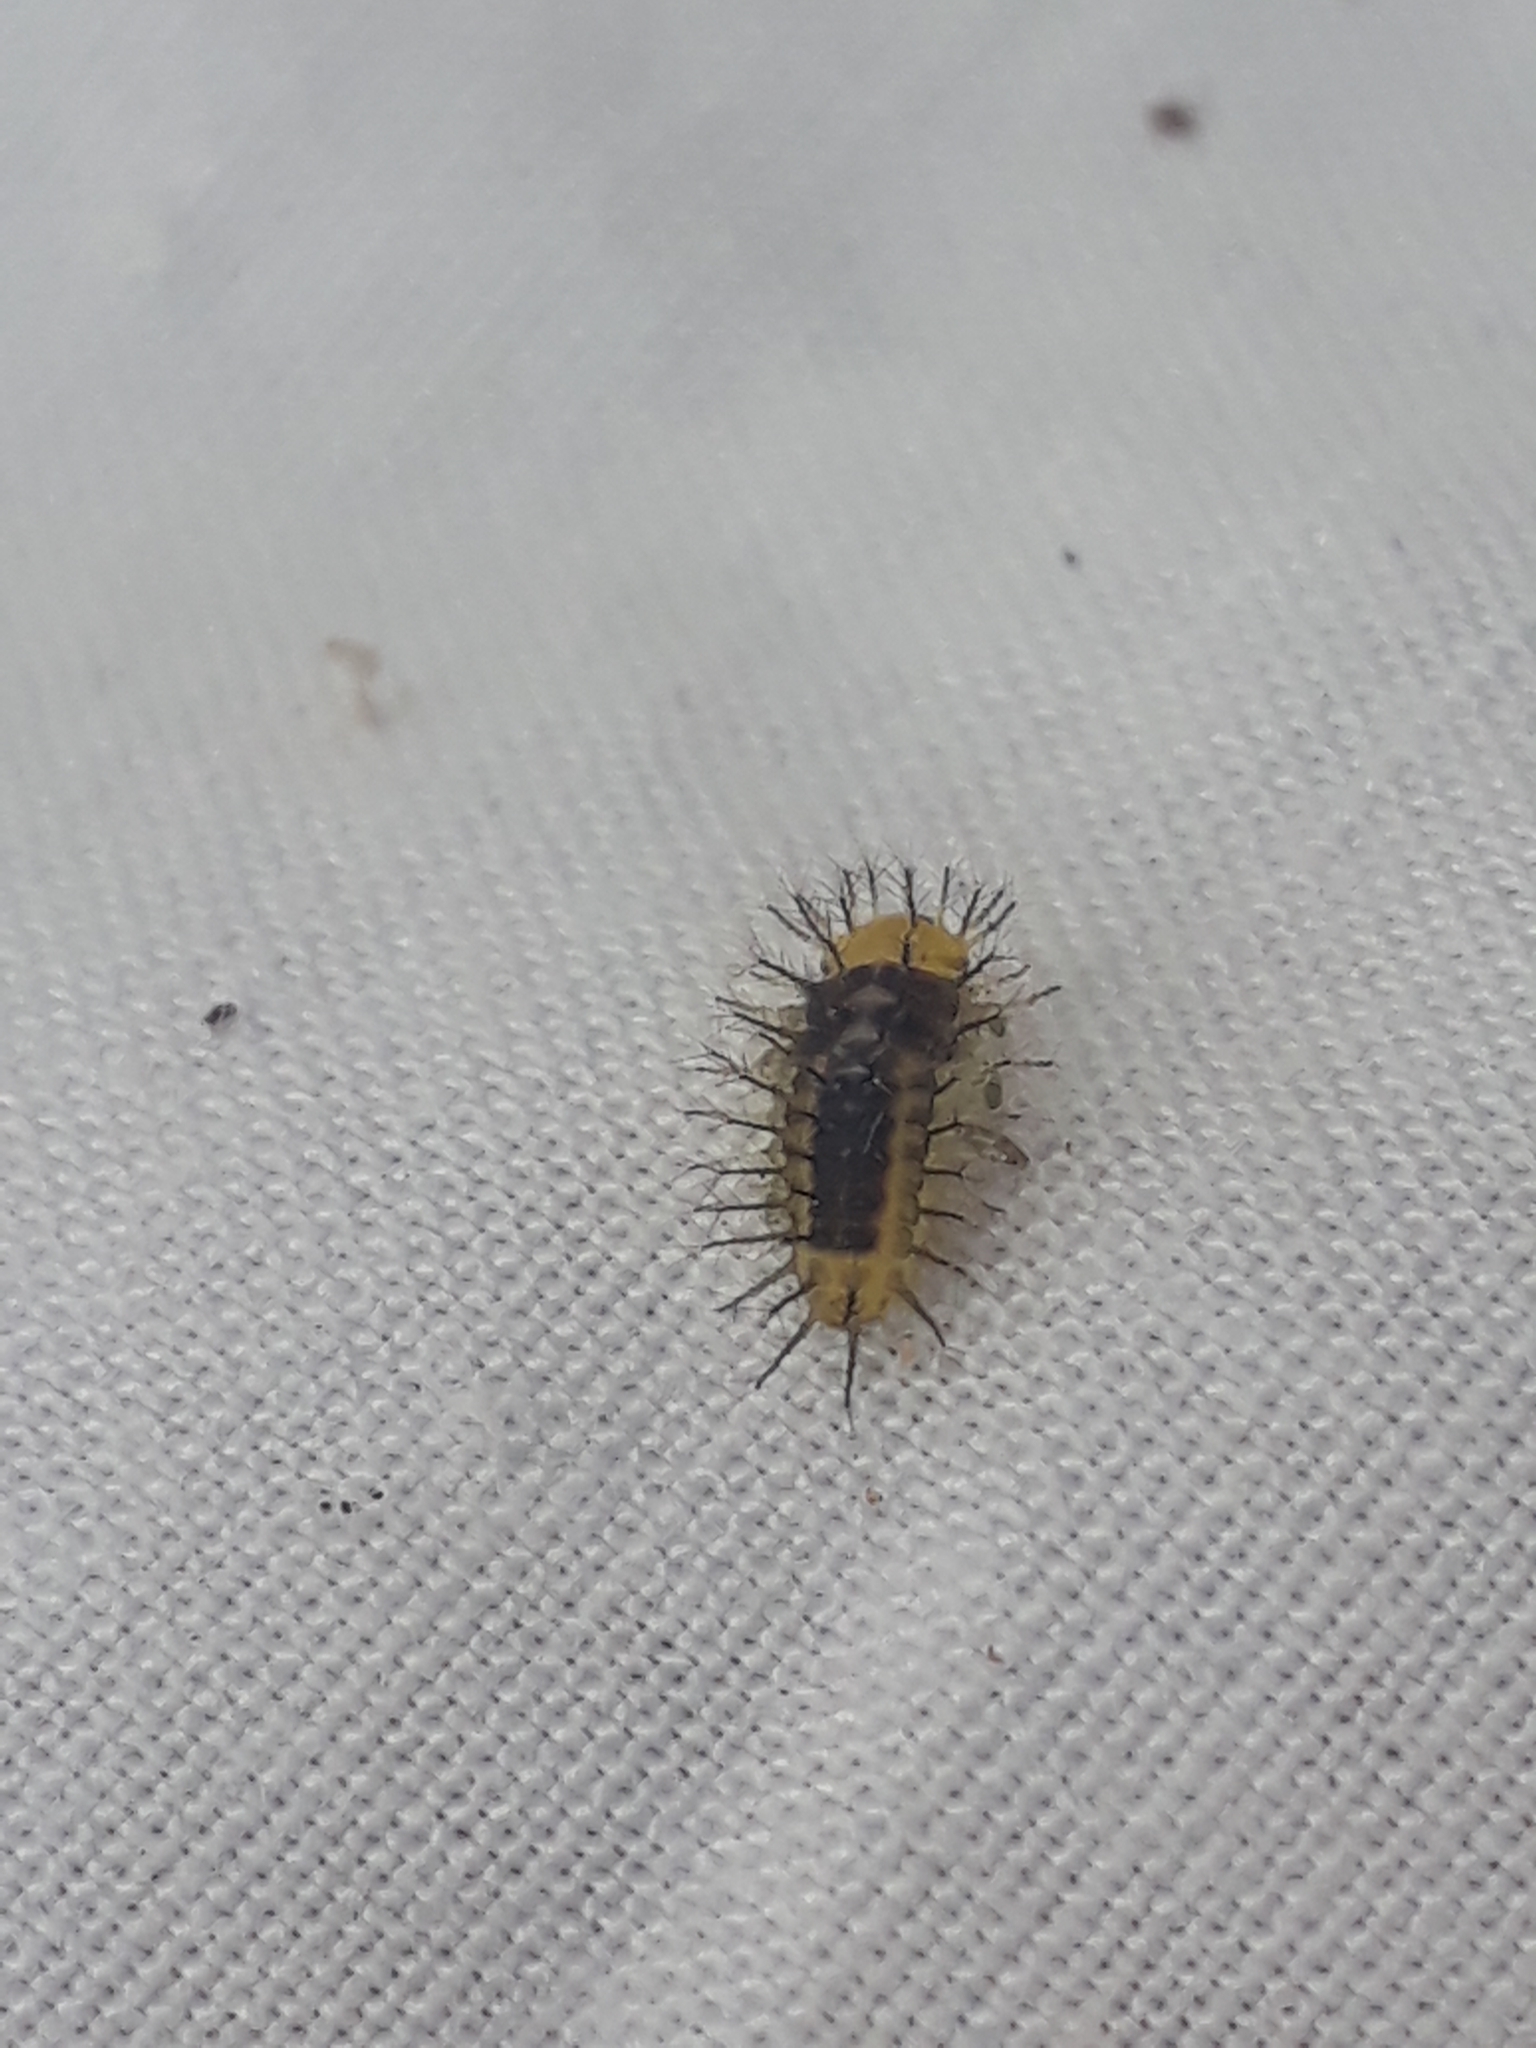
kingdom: Animalia
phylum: Arthropoda
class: Insecta
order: Coleoptera
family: Coccinellidae
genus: Halmus
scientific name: Halmus chalybeus
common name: Steel blue ladybird beetle
